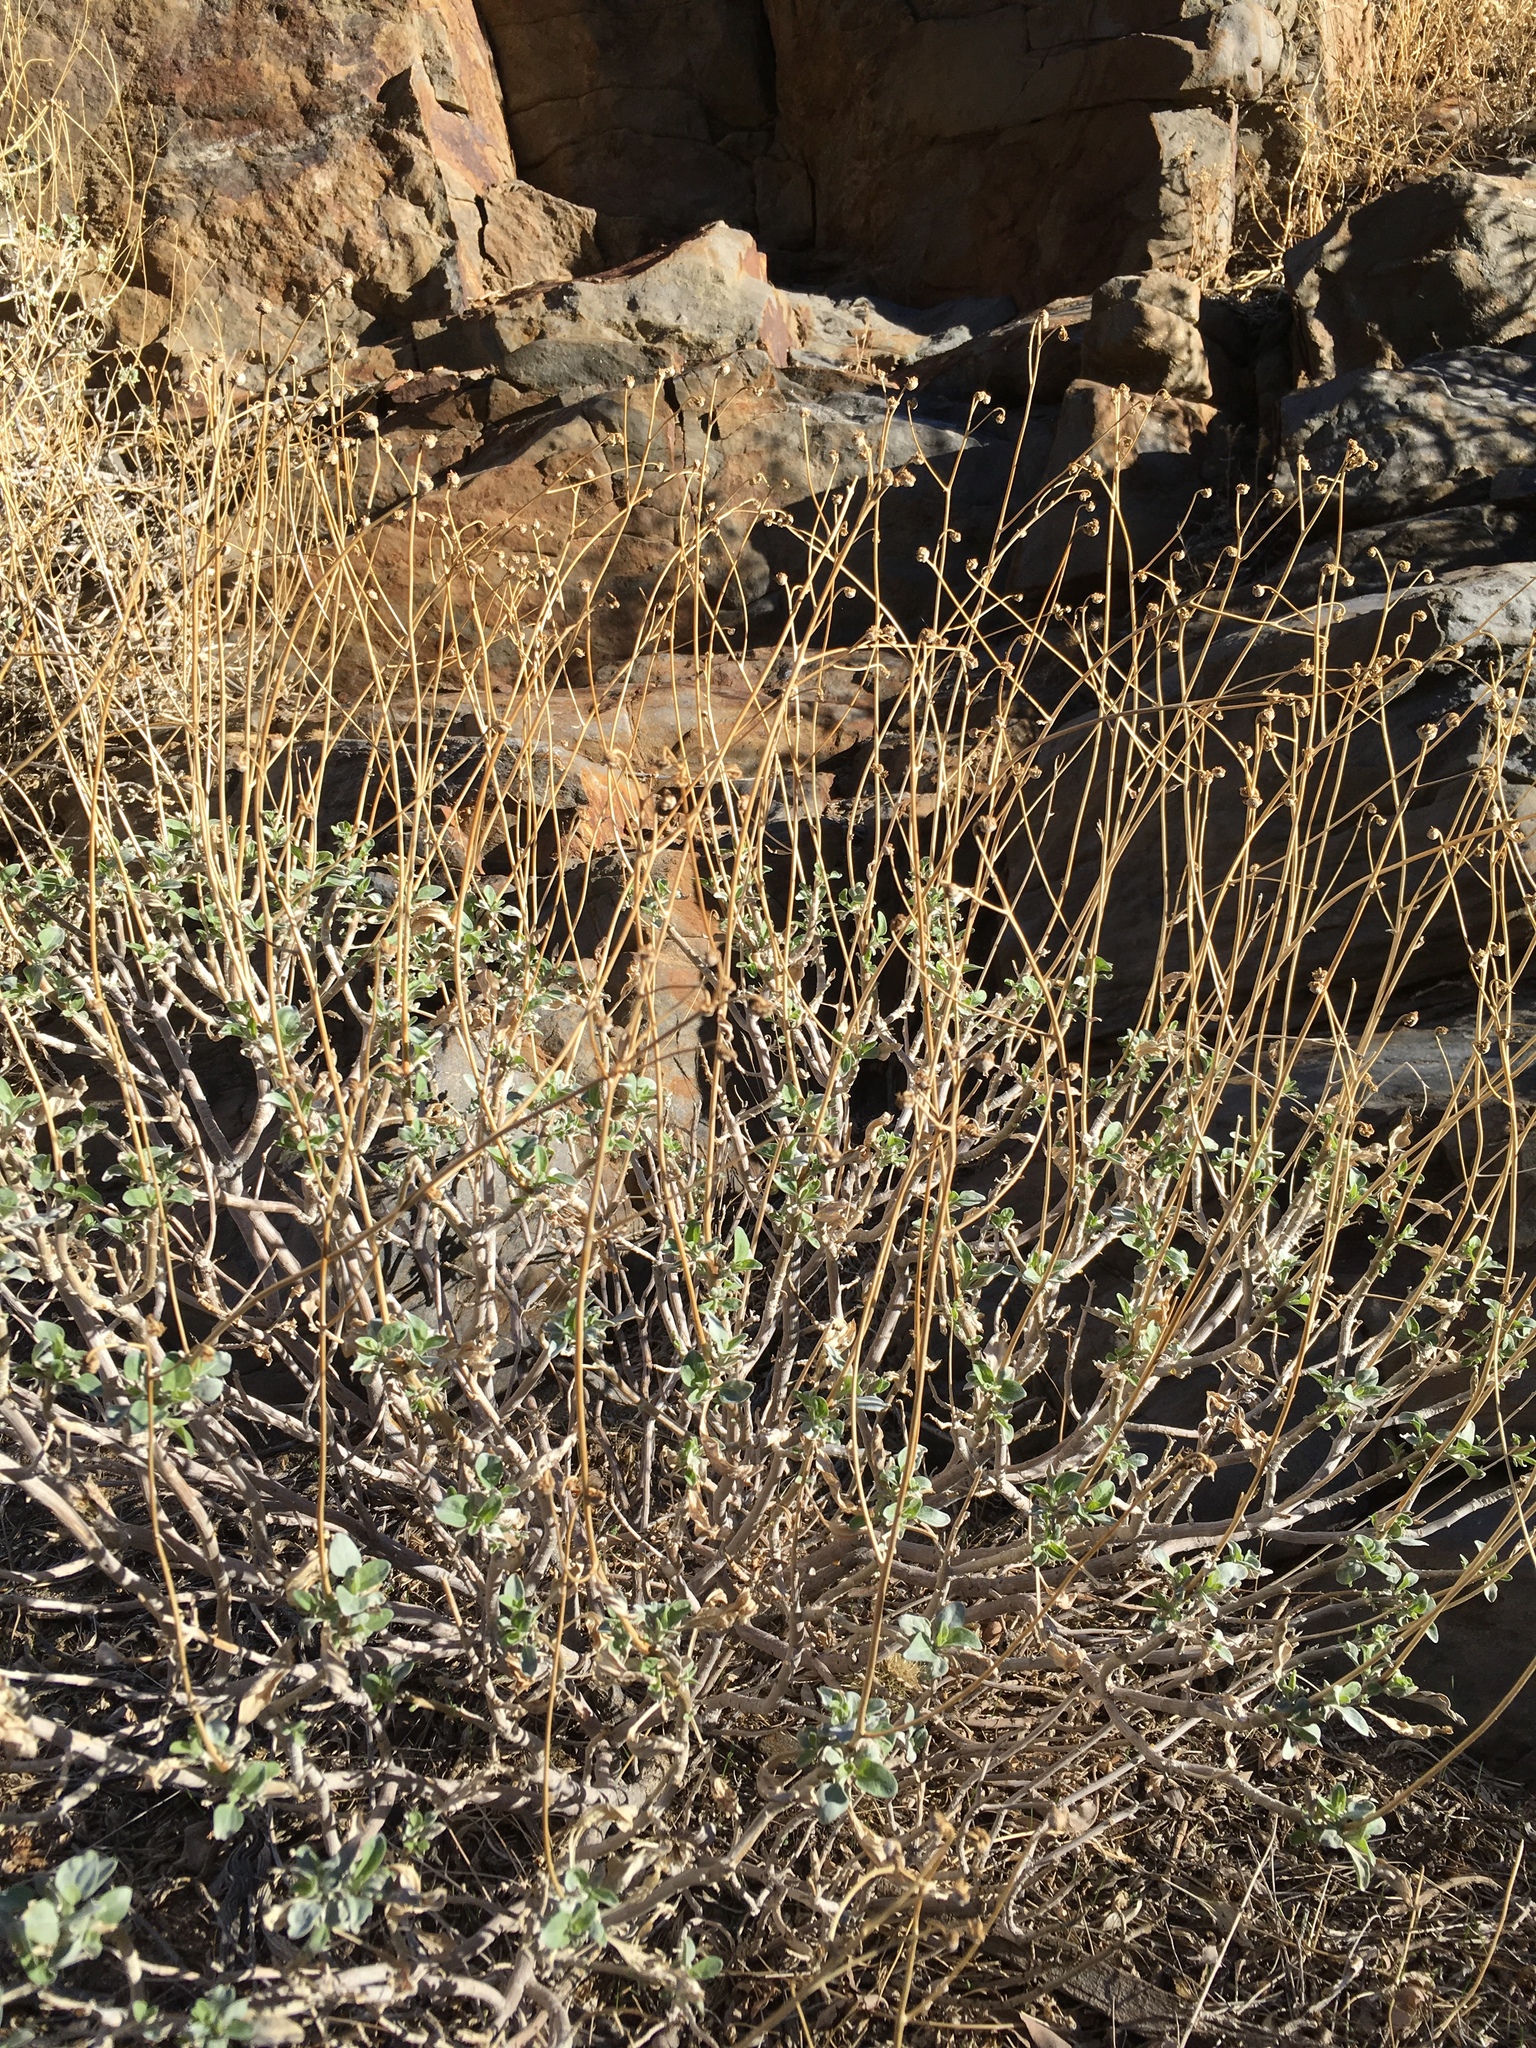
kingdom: Plantae
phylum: Tracheophyta
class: Magnoliopsida
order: Asterales
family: Asteraceae
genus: Encelia
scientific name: Encelia farinosa
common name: Brittlebush
